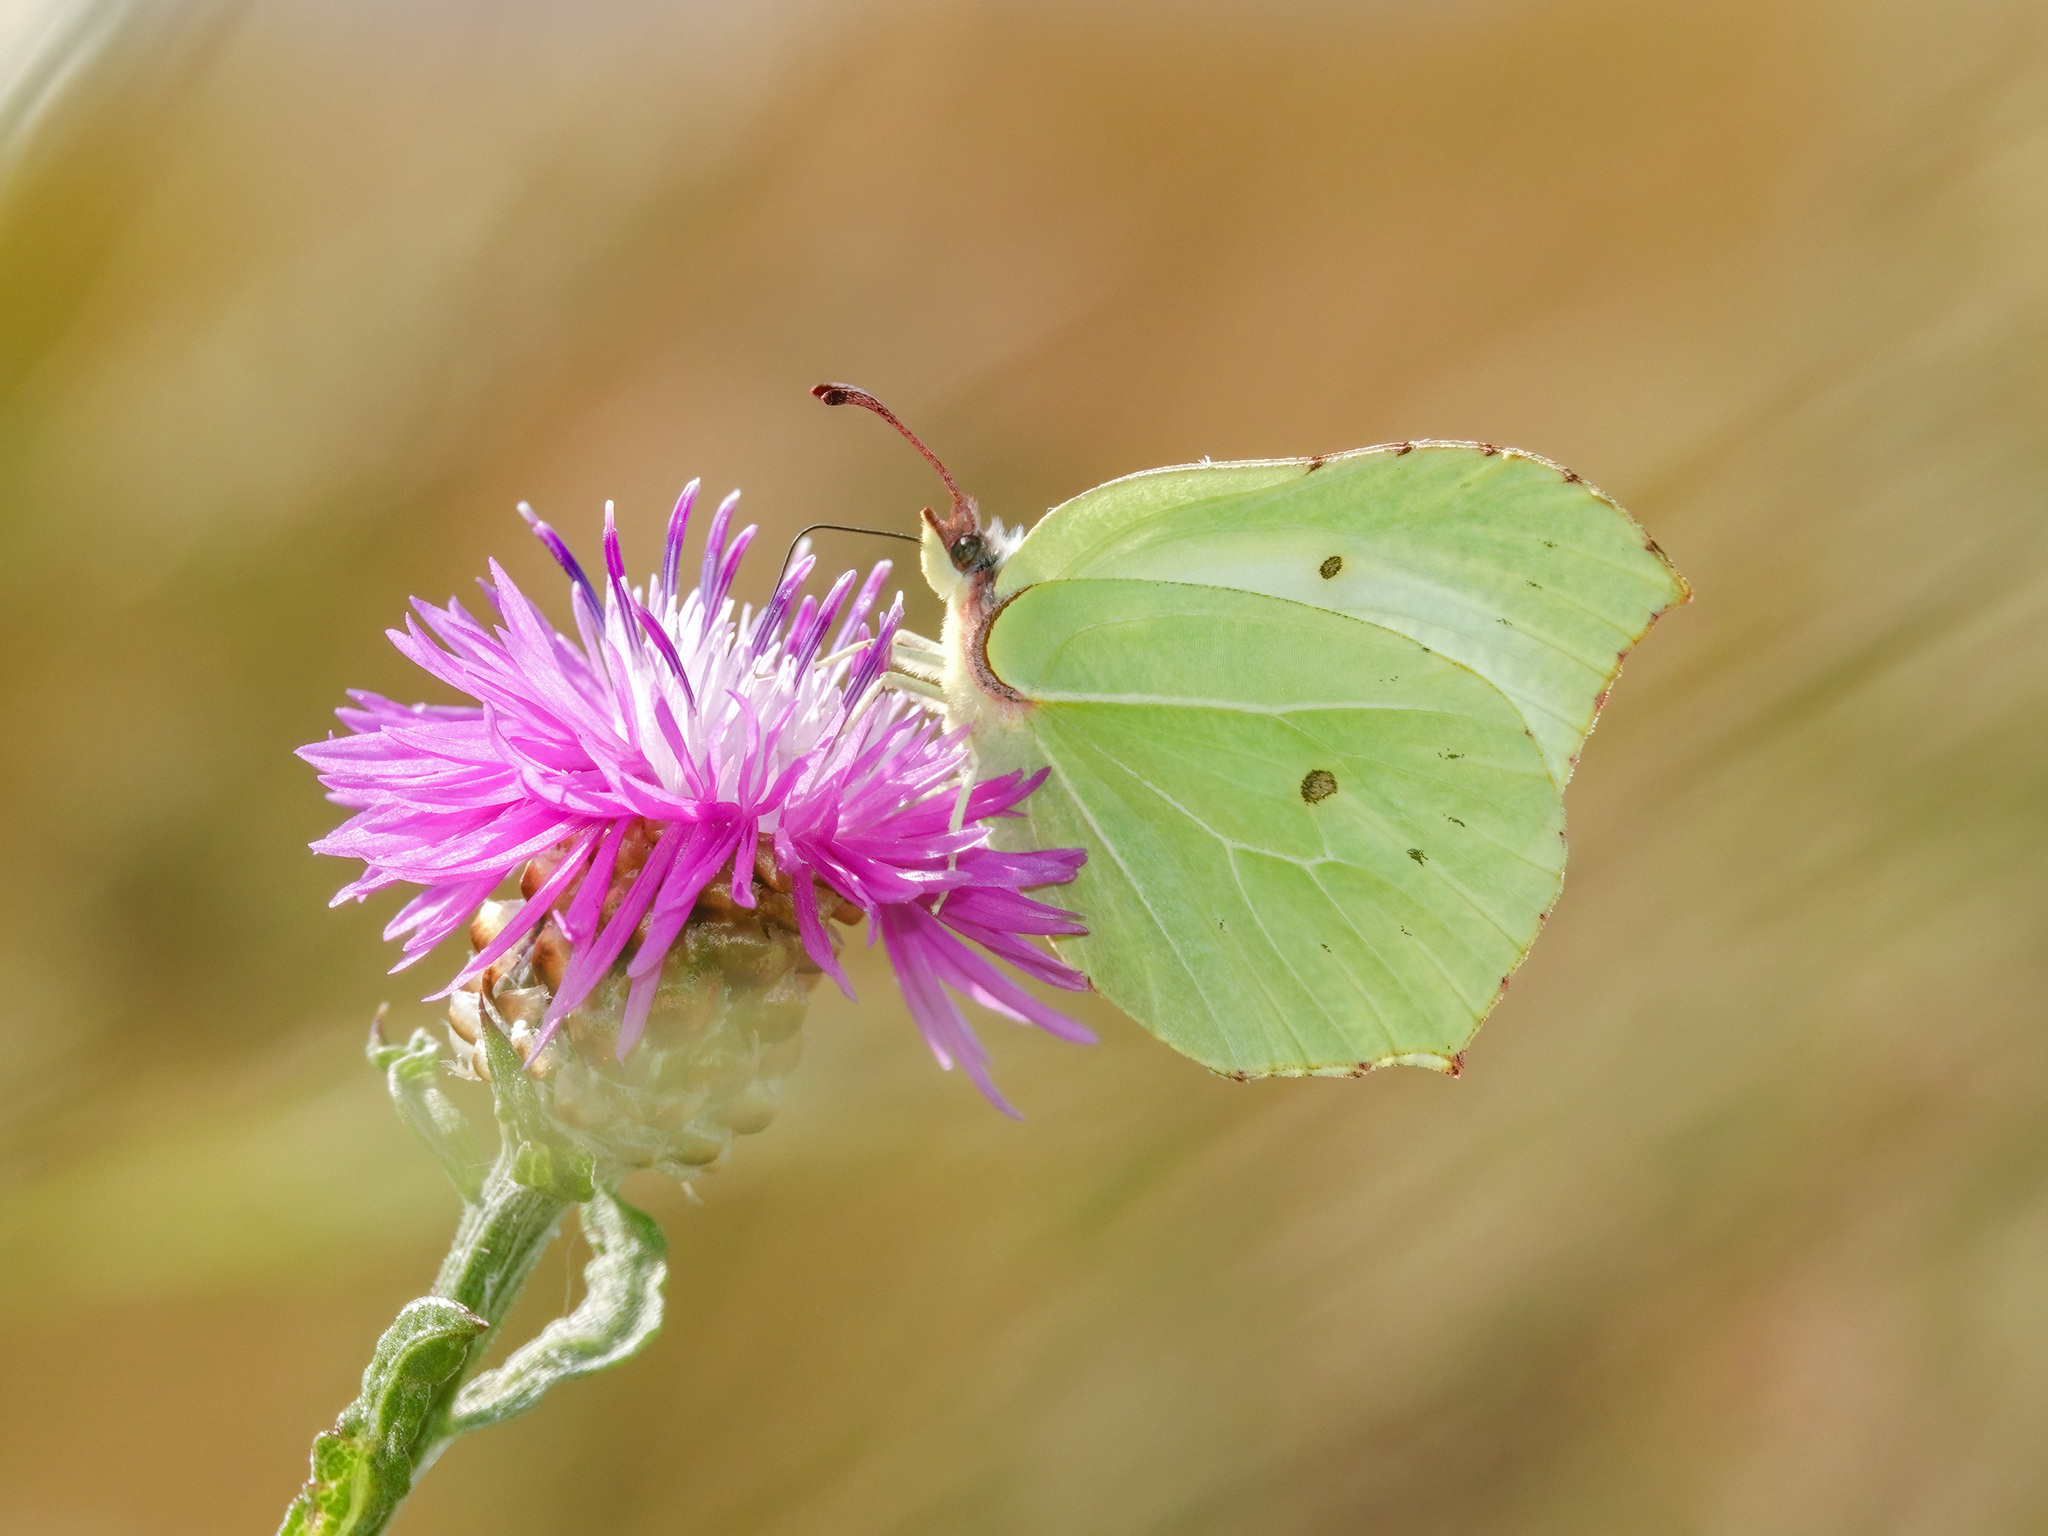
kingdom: Animalia
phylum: Arthropoda
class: Insecta
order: Lepidoptera
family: Pieridae
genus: Gonepteryx
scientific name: Gonepteryx rhamni
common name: Brimstone
